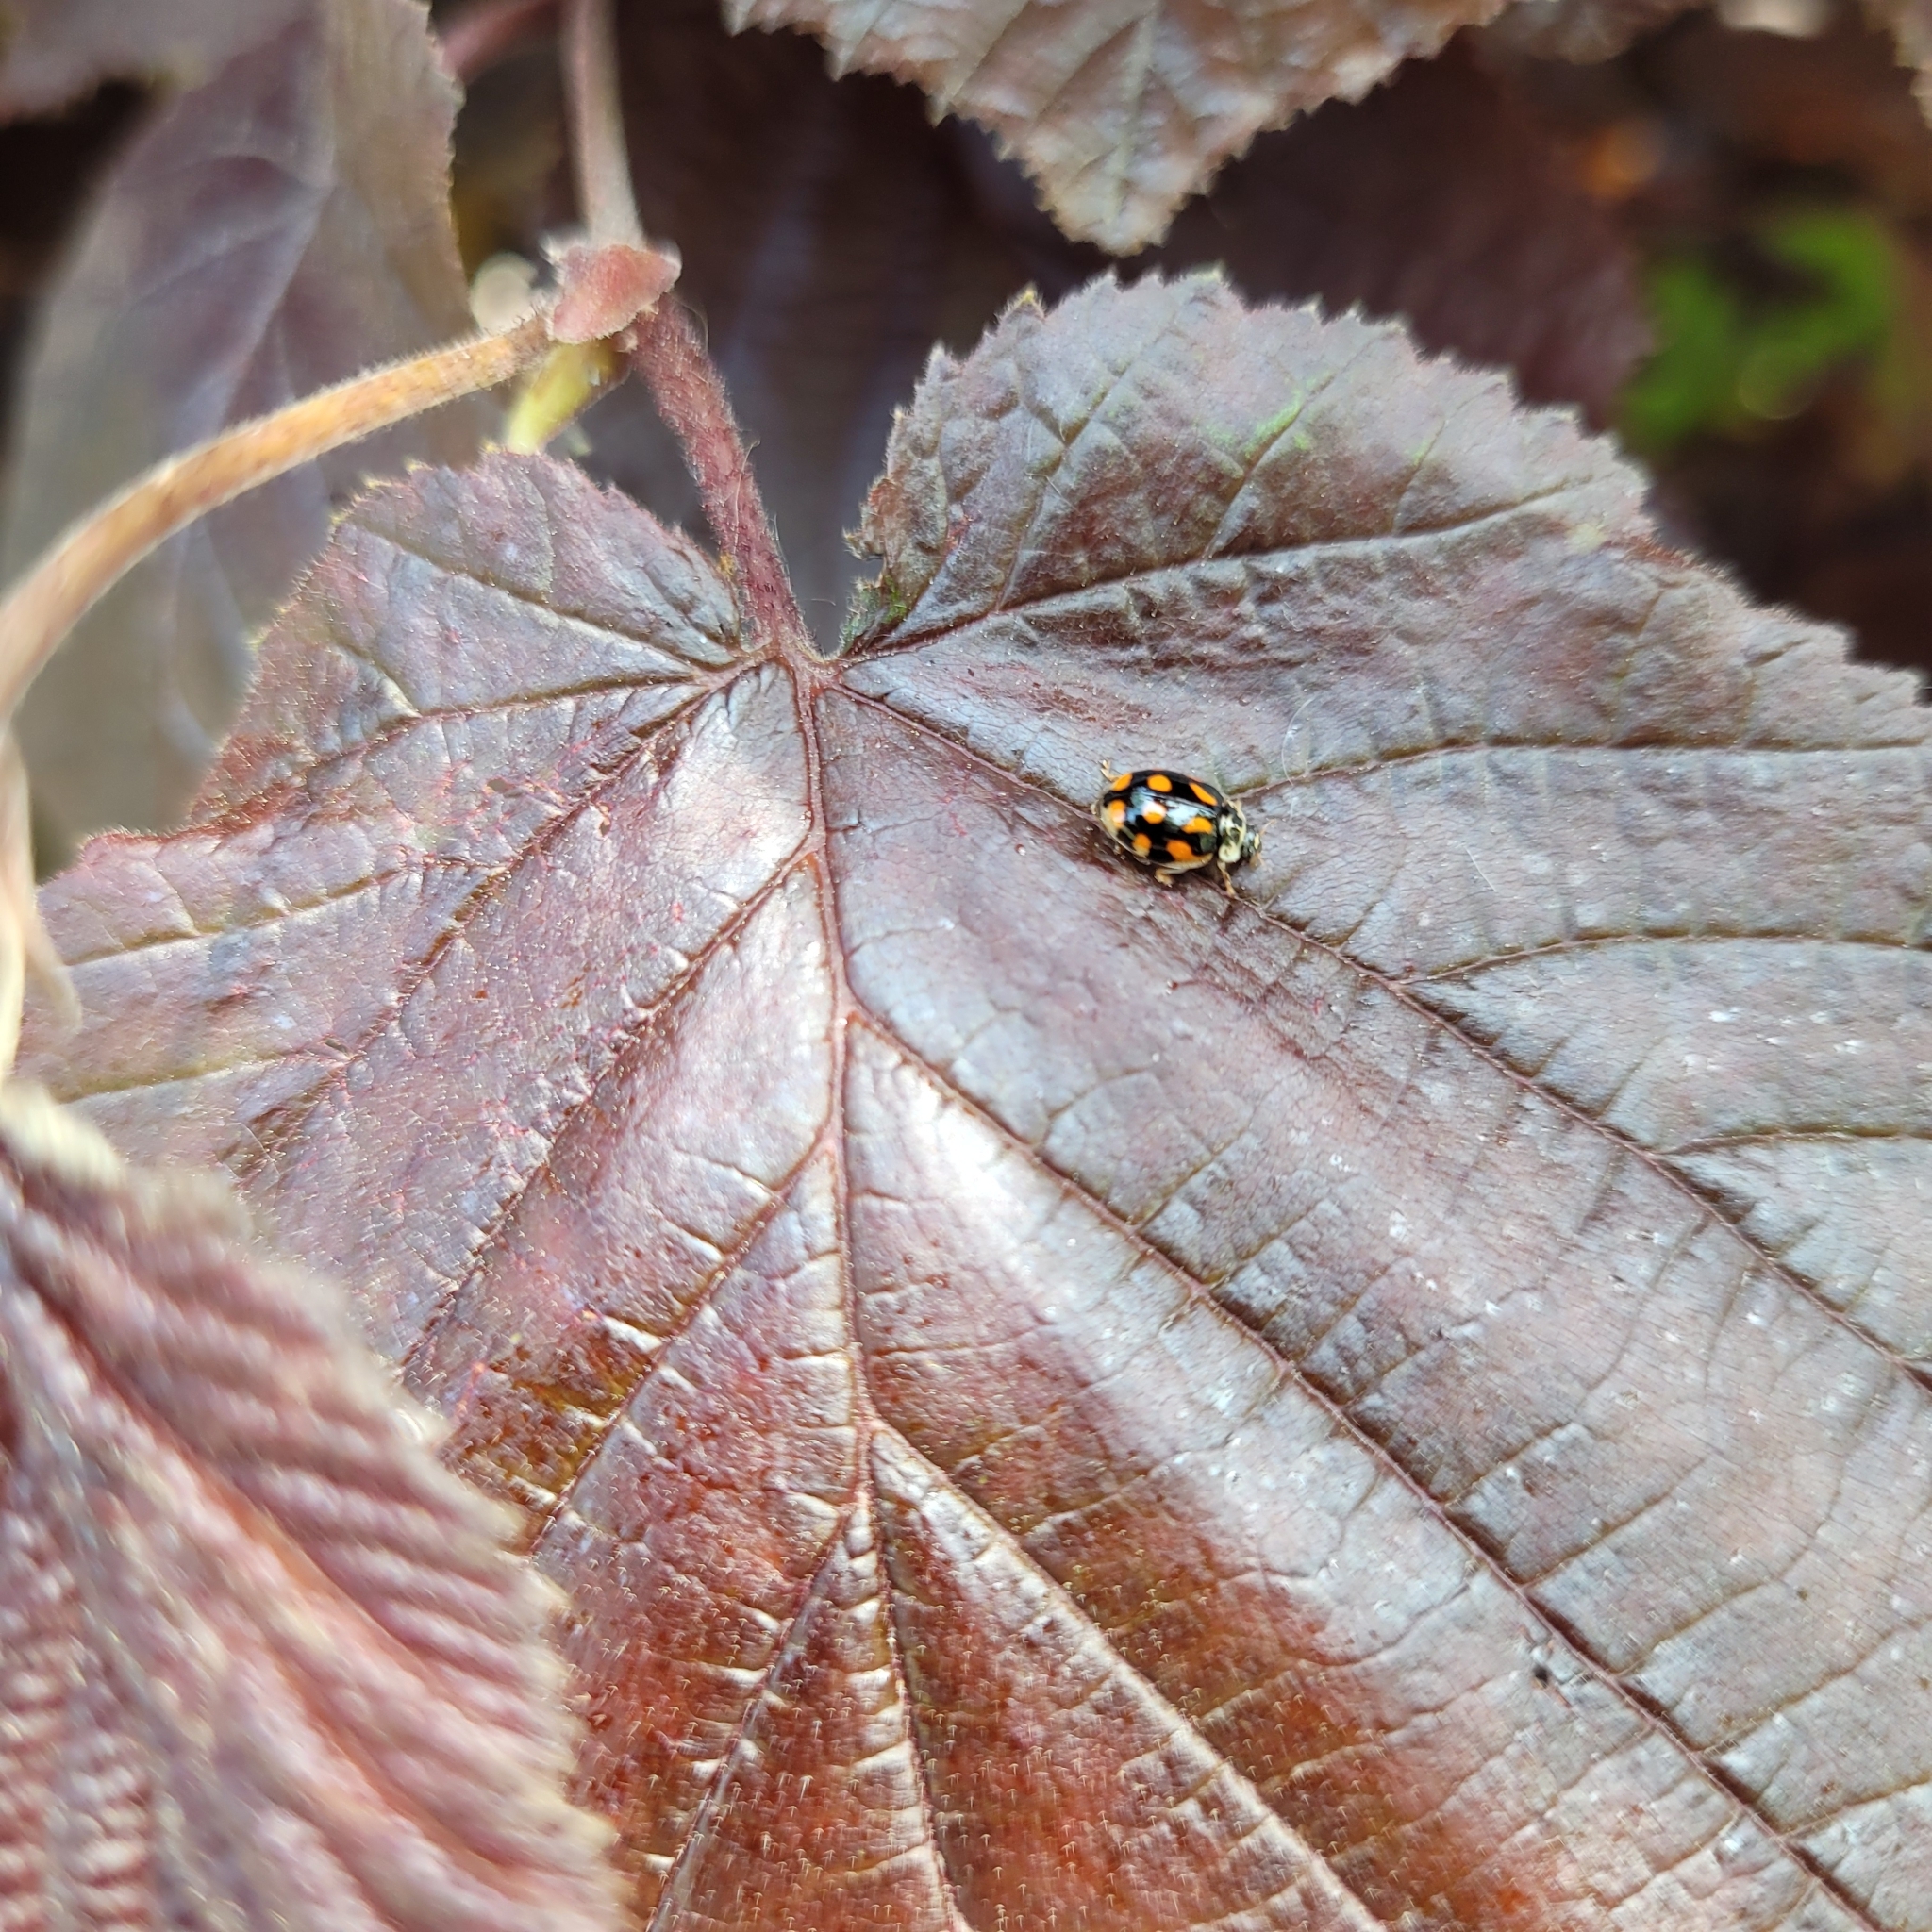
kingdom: Animalia
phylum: Arthropoda
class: Insecta
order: Coleoptera
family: Coccinellidae
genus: Adalia
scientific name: Adalia decempunctata
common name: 10-spot ladybird
